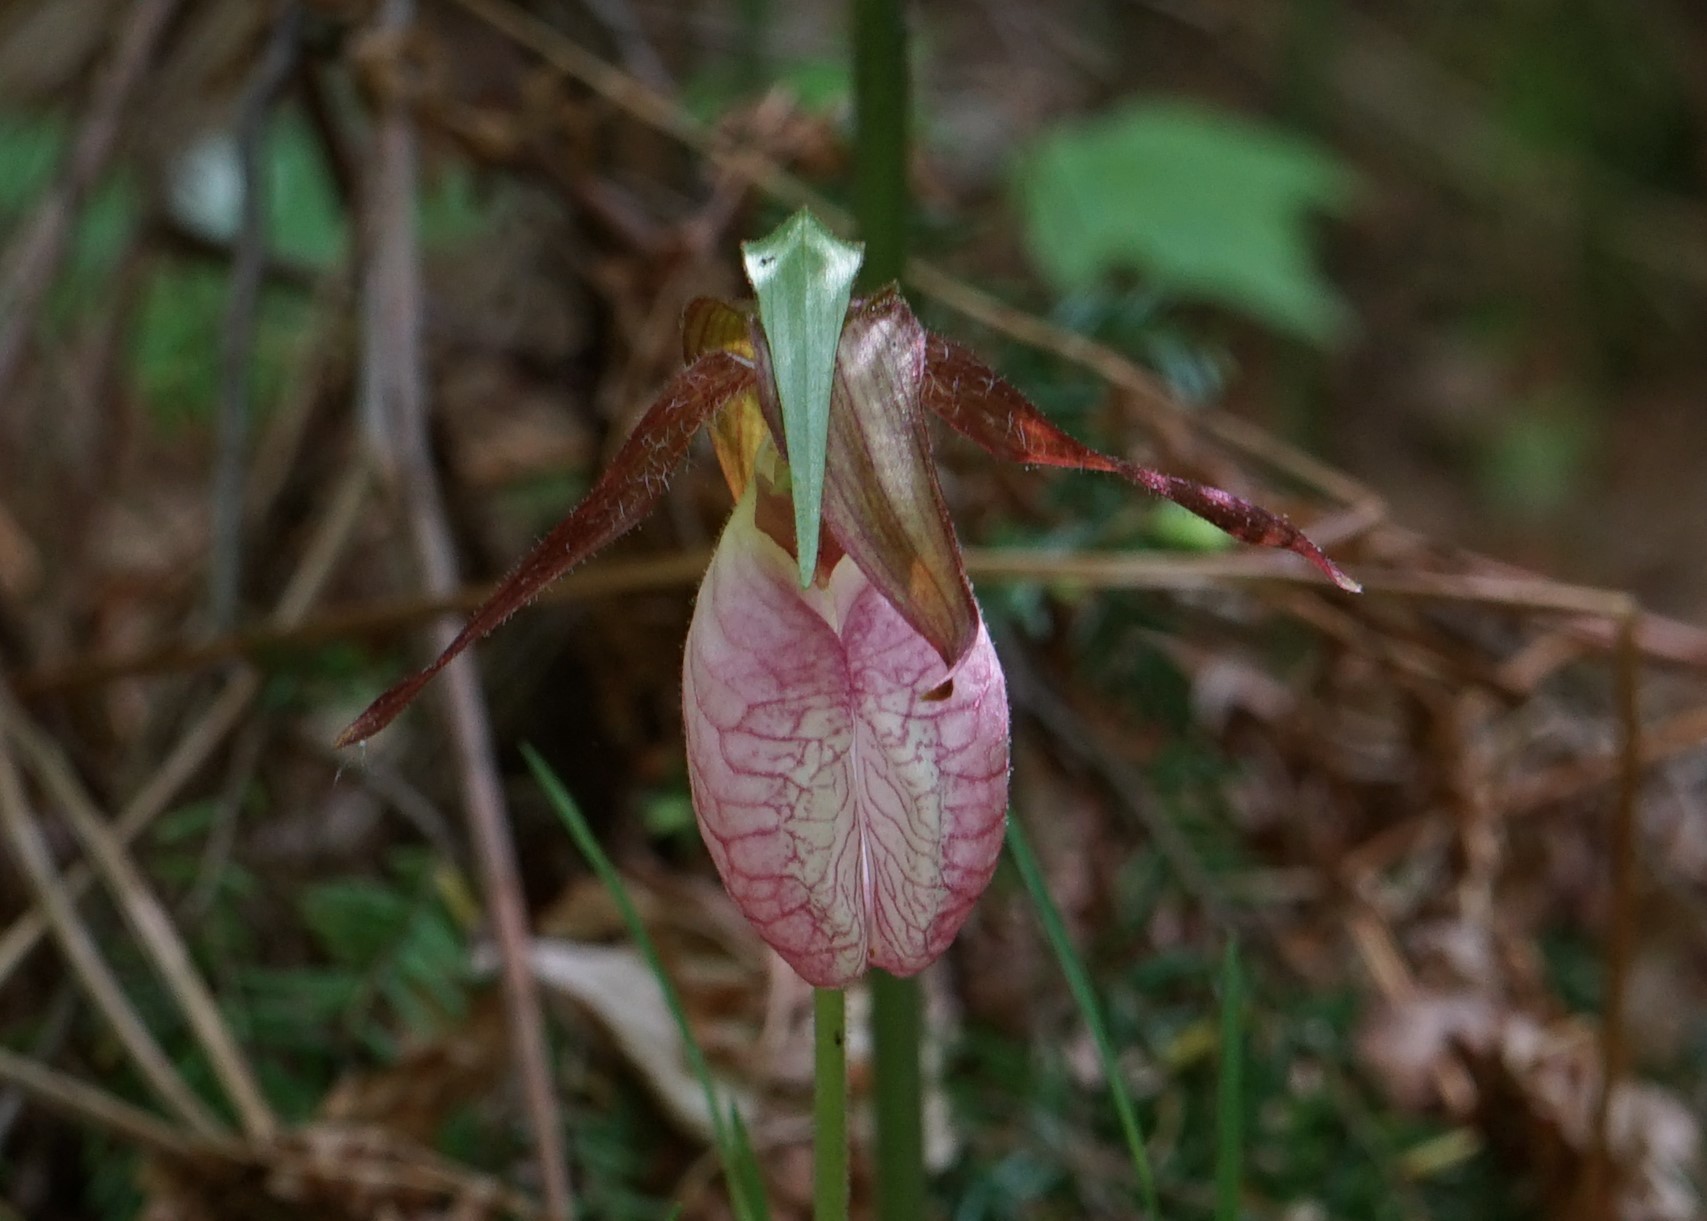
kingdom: Plantae
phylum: Tracheophyta
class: Liliopsida
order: Asparagales
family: Orchidaceae
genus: Cypripedium
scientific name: Cypripedium acaule
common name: Pink lady's-slipper
